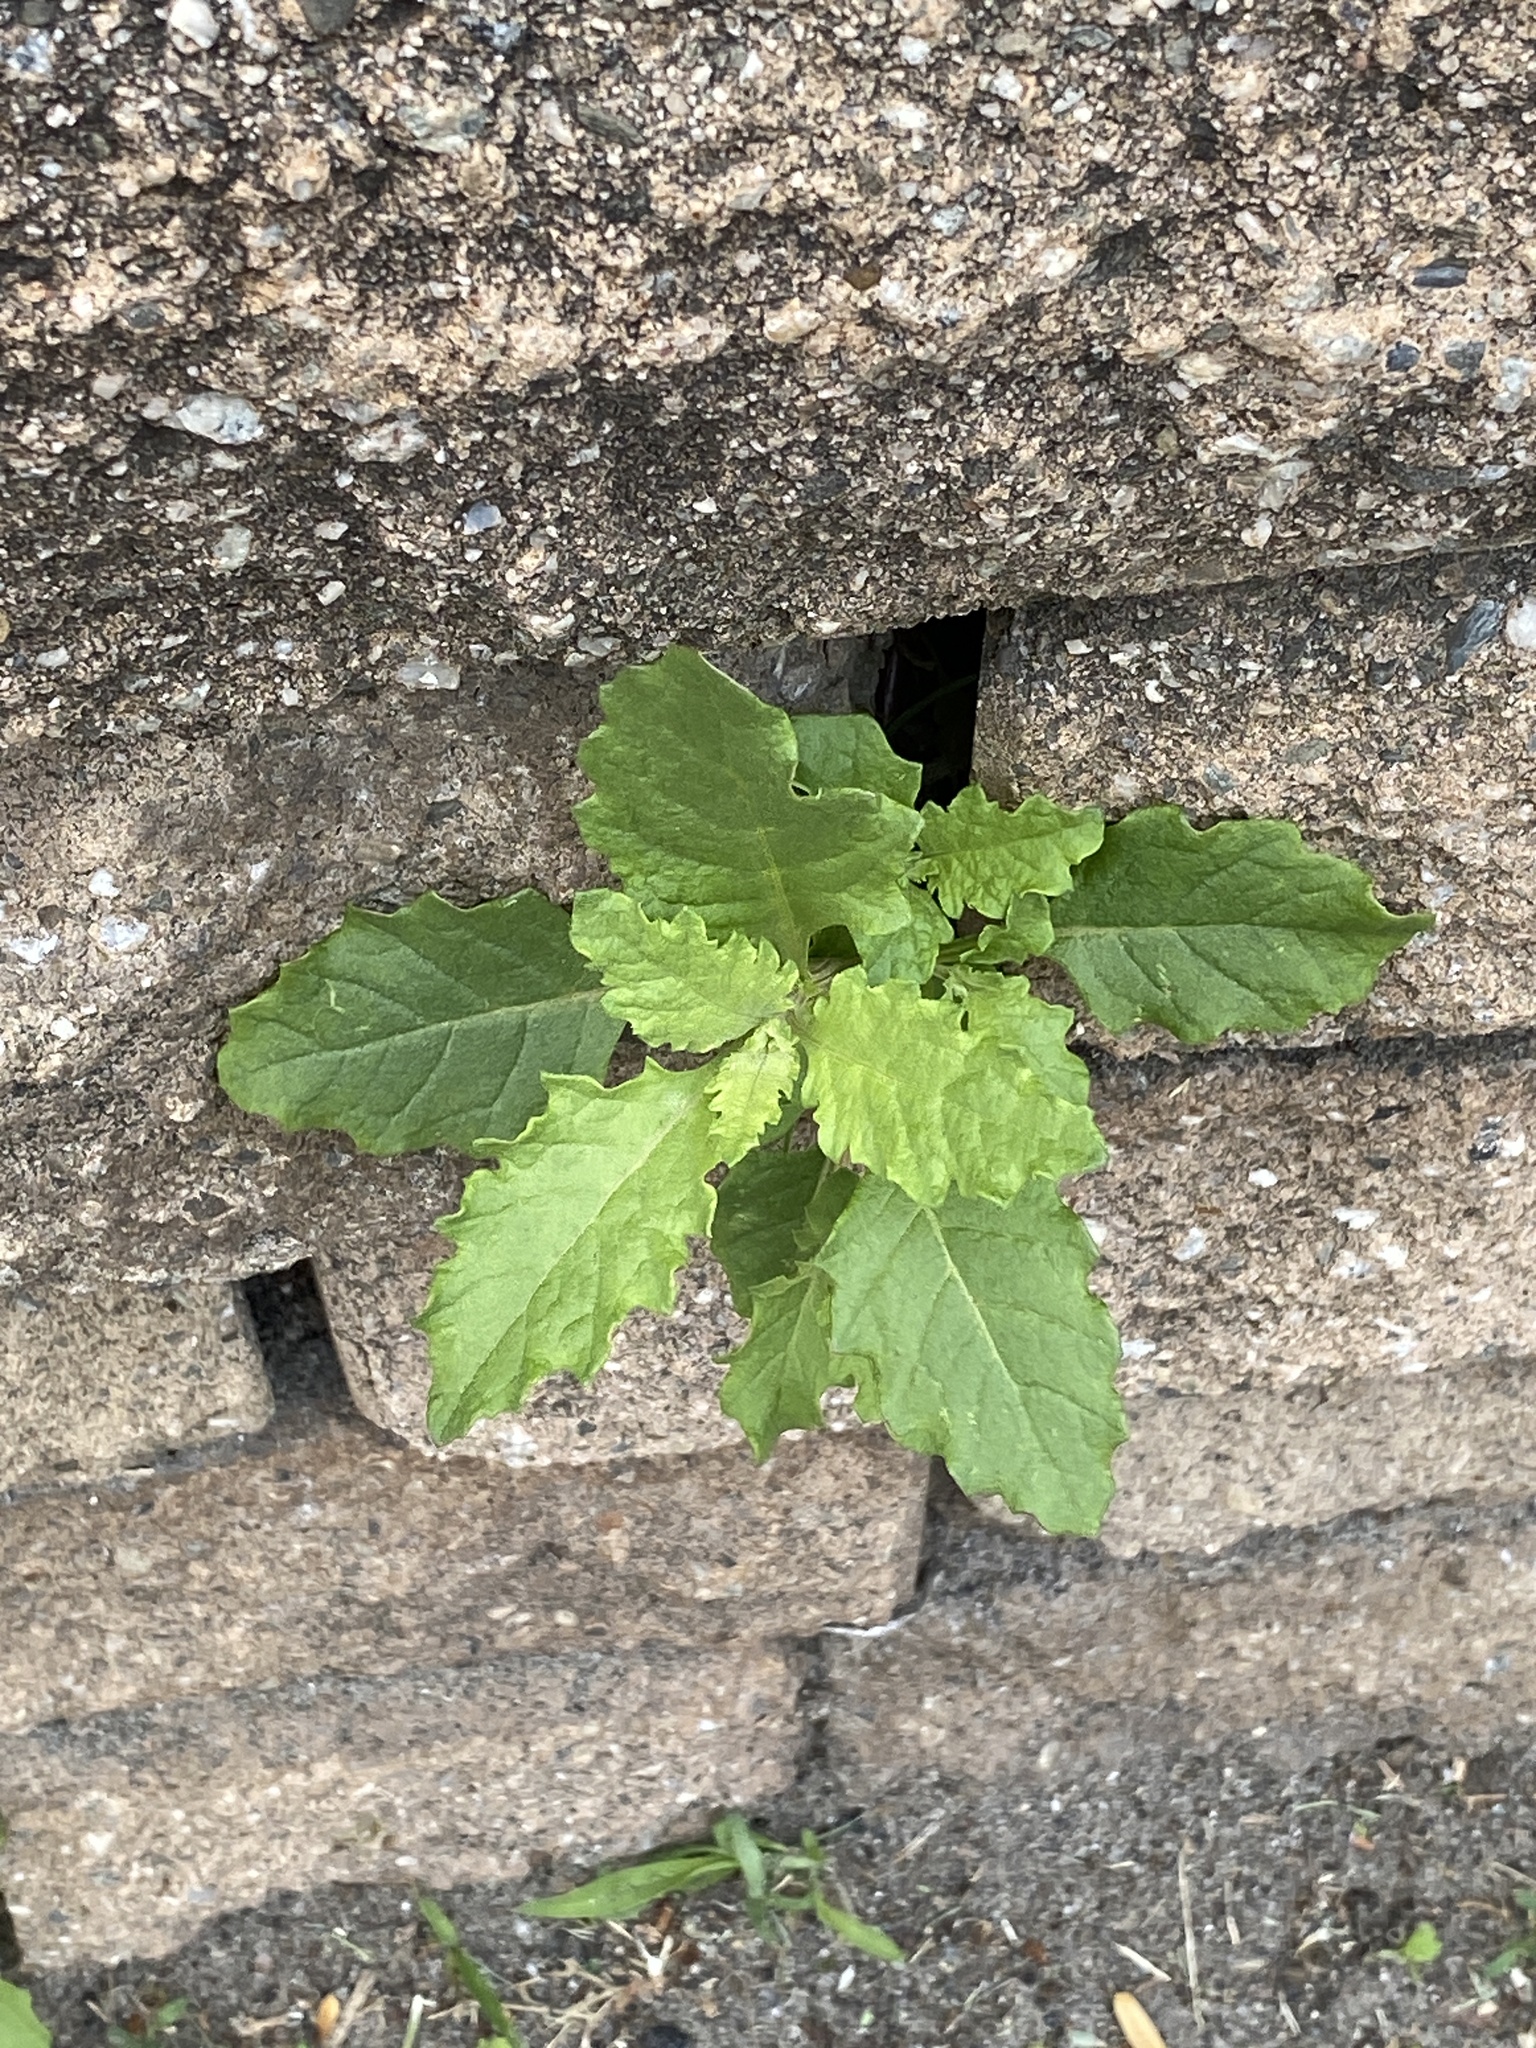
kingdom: Plantae
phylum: Tracheophyta
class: Magnoliopsida
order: Caryophyllales
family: Amaranthaceae
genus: Dysphania
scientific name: Dysphania ambrosioides
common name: Wormseed
